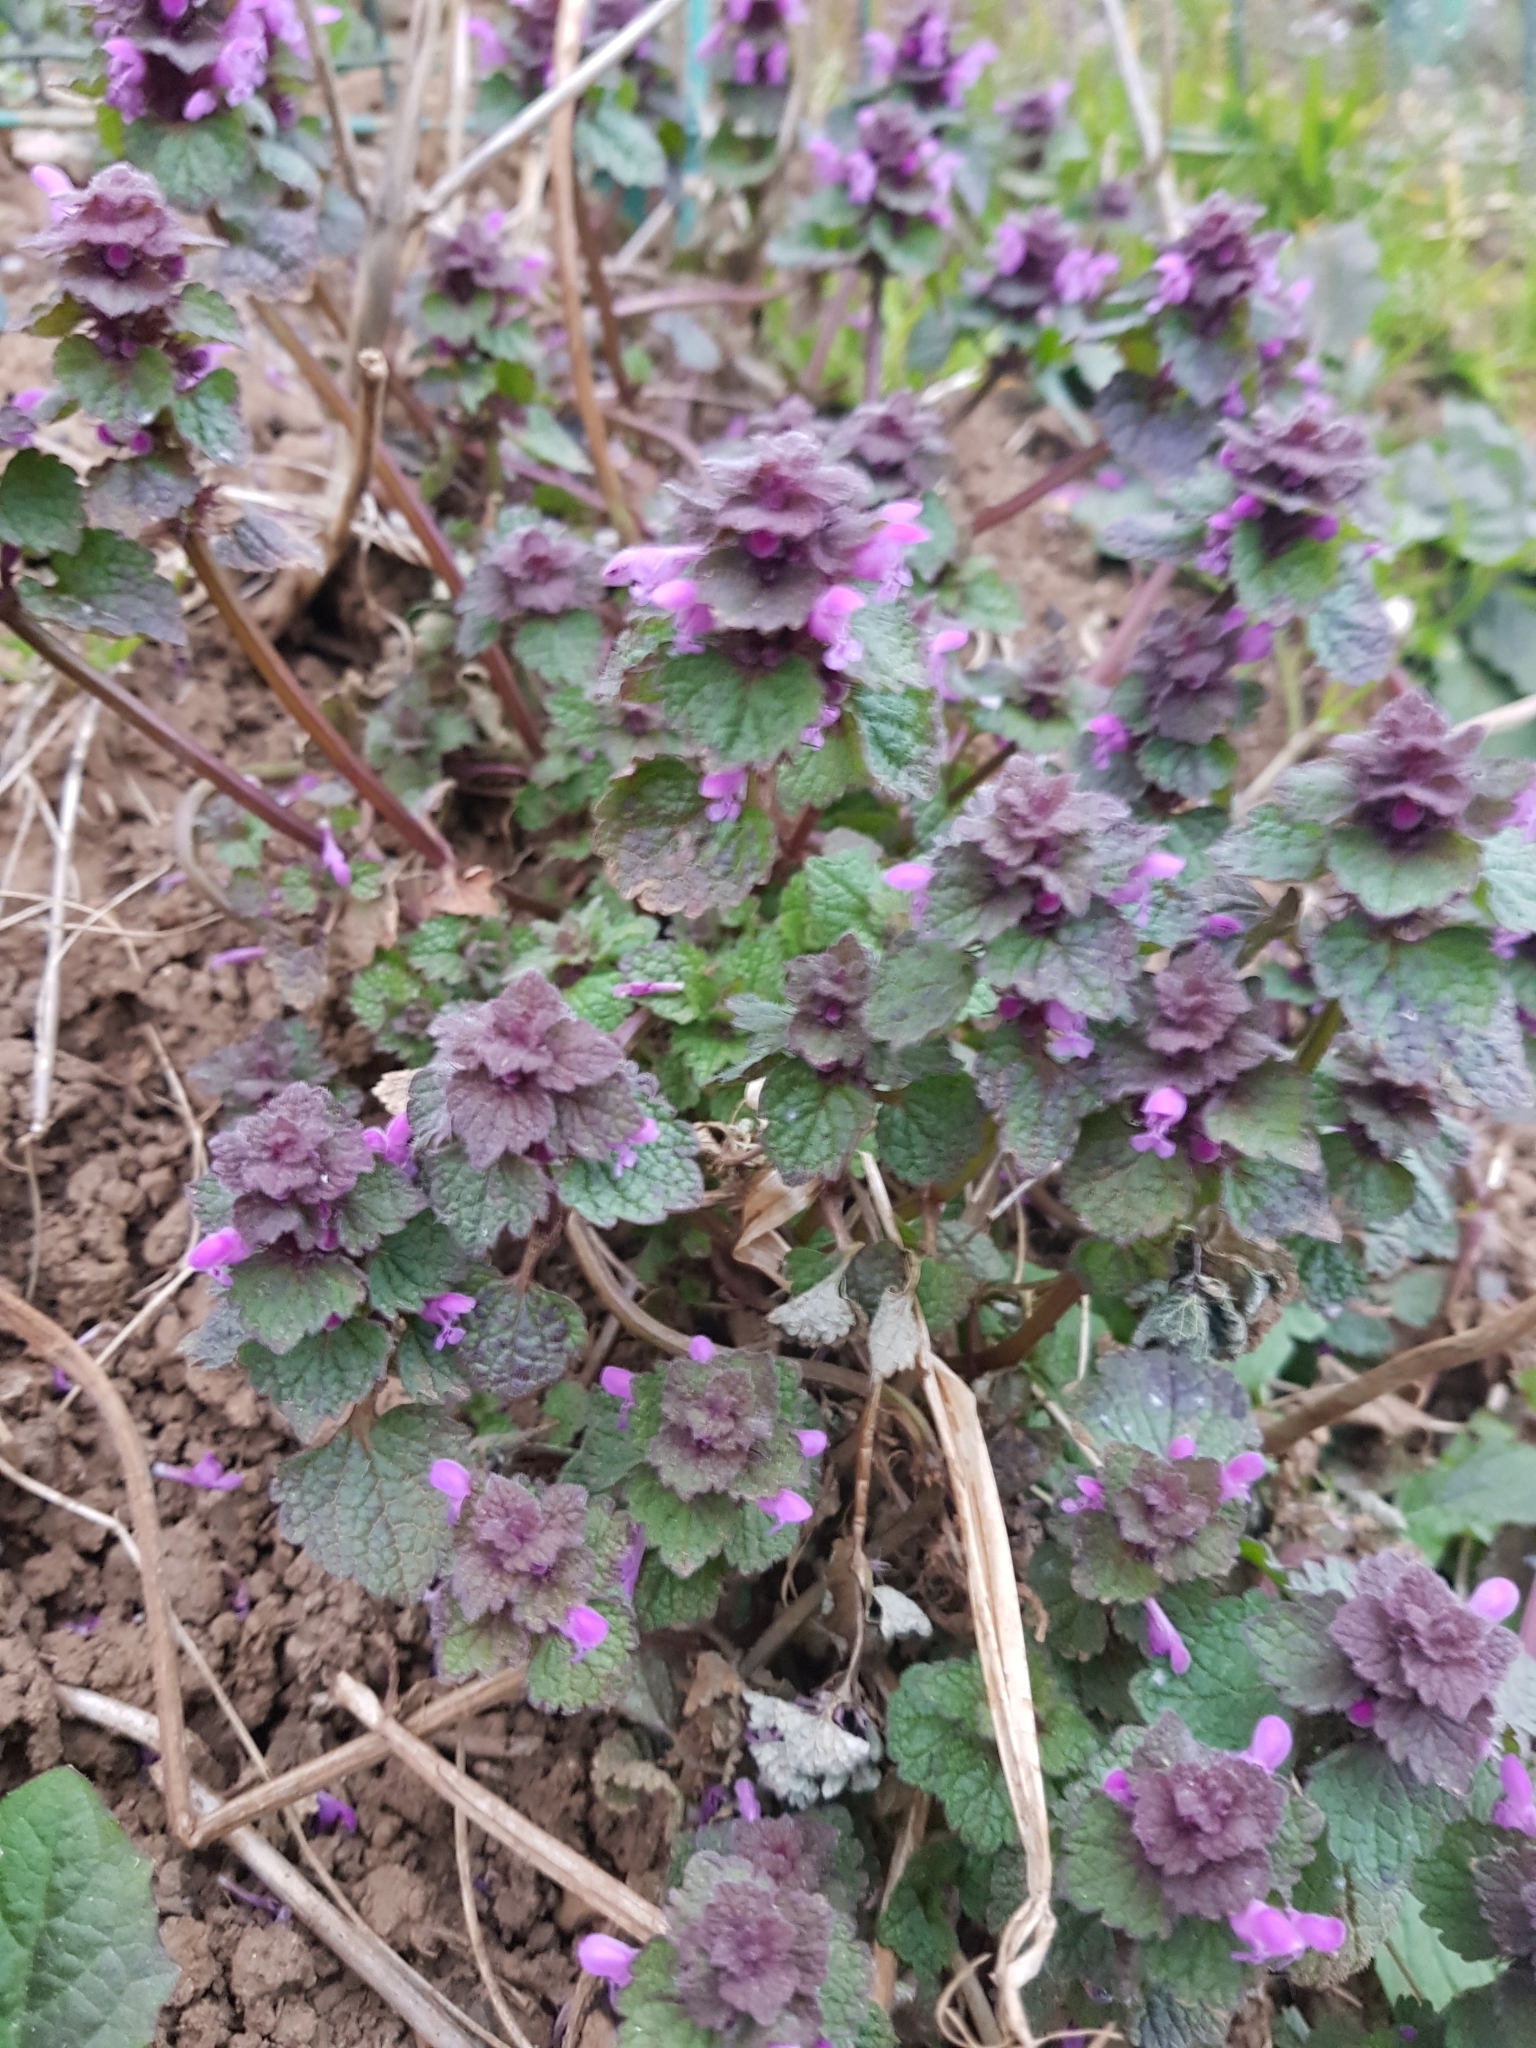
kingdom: Plantae
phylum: Tracheophyta
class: Magnoliopsida
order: Lamiales
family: Lamiaceae
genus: Lamium
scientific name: Lamium purpureum
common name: Red dead-nettle
